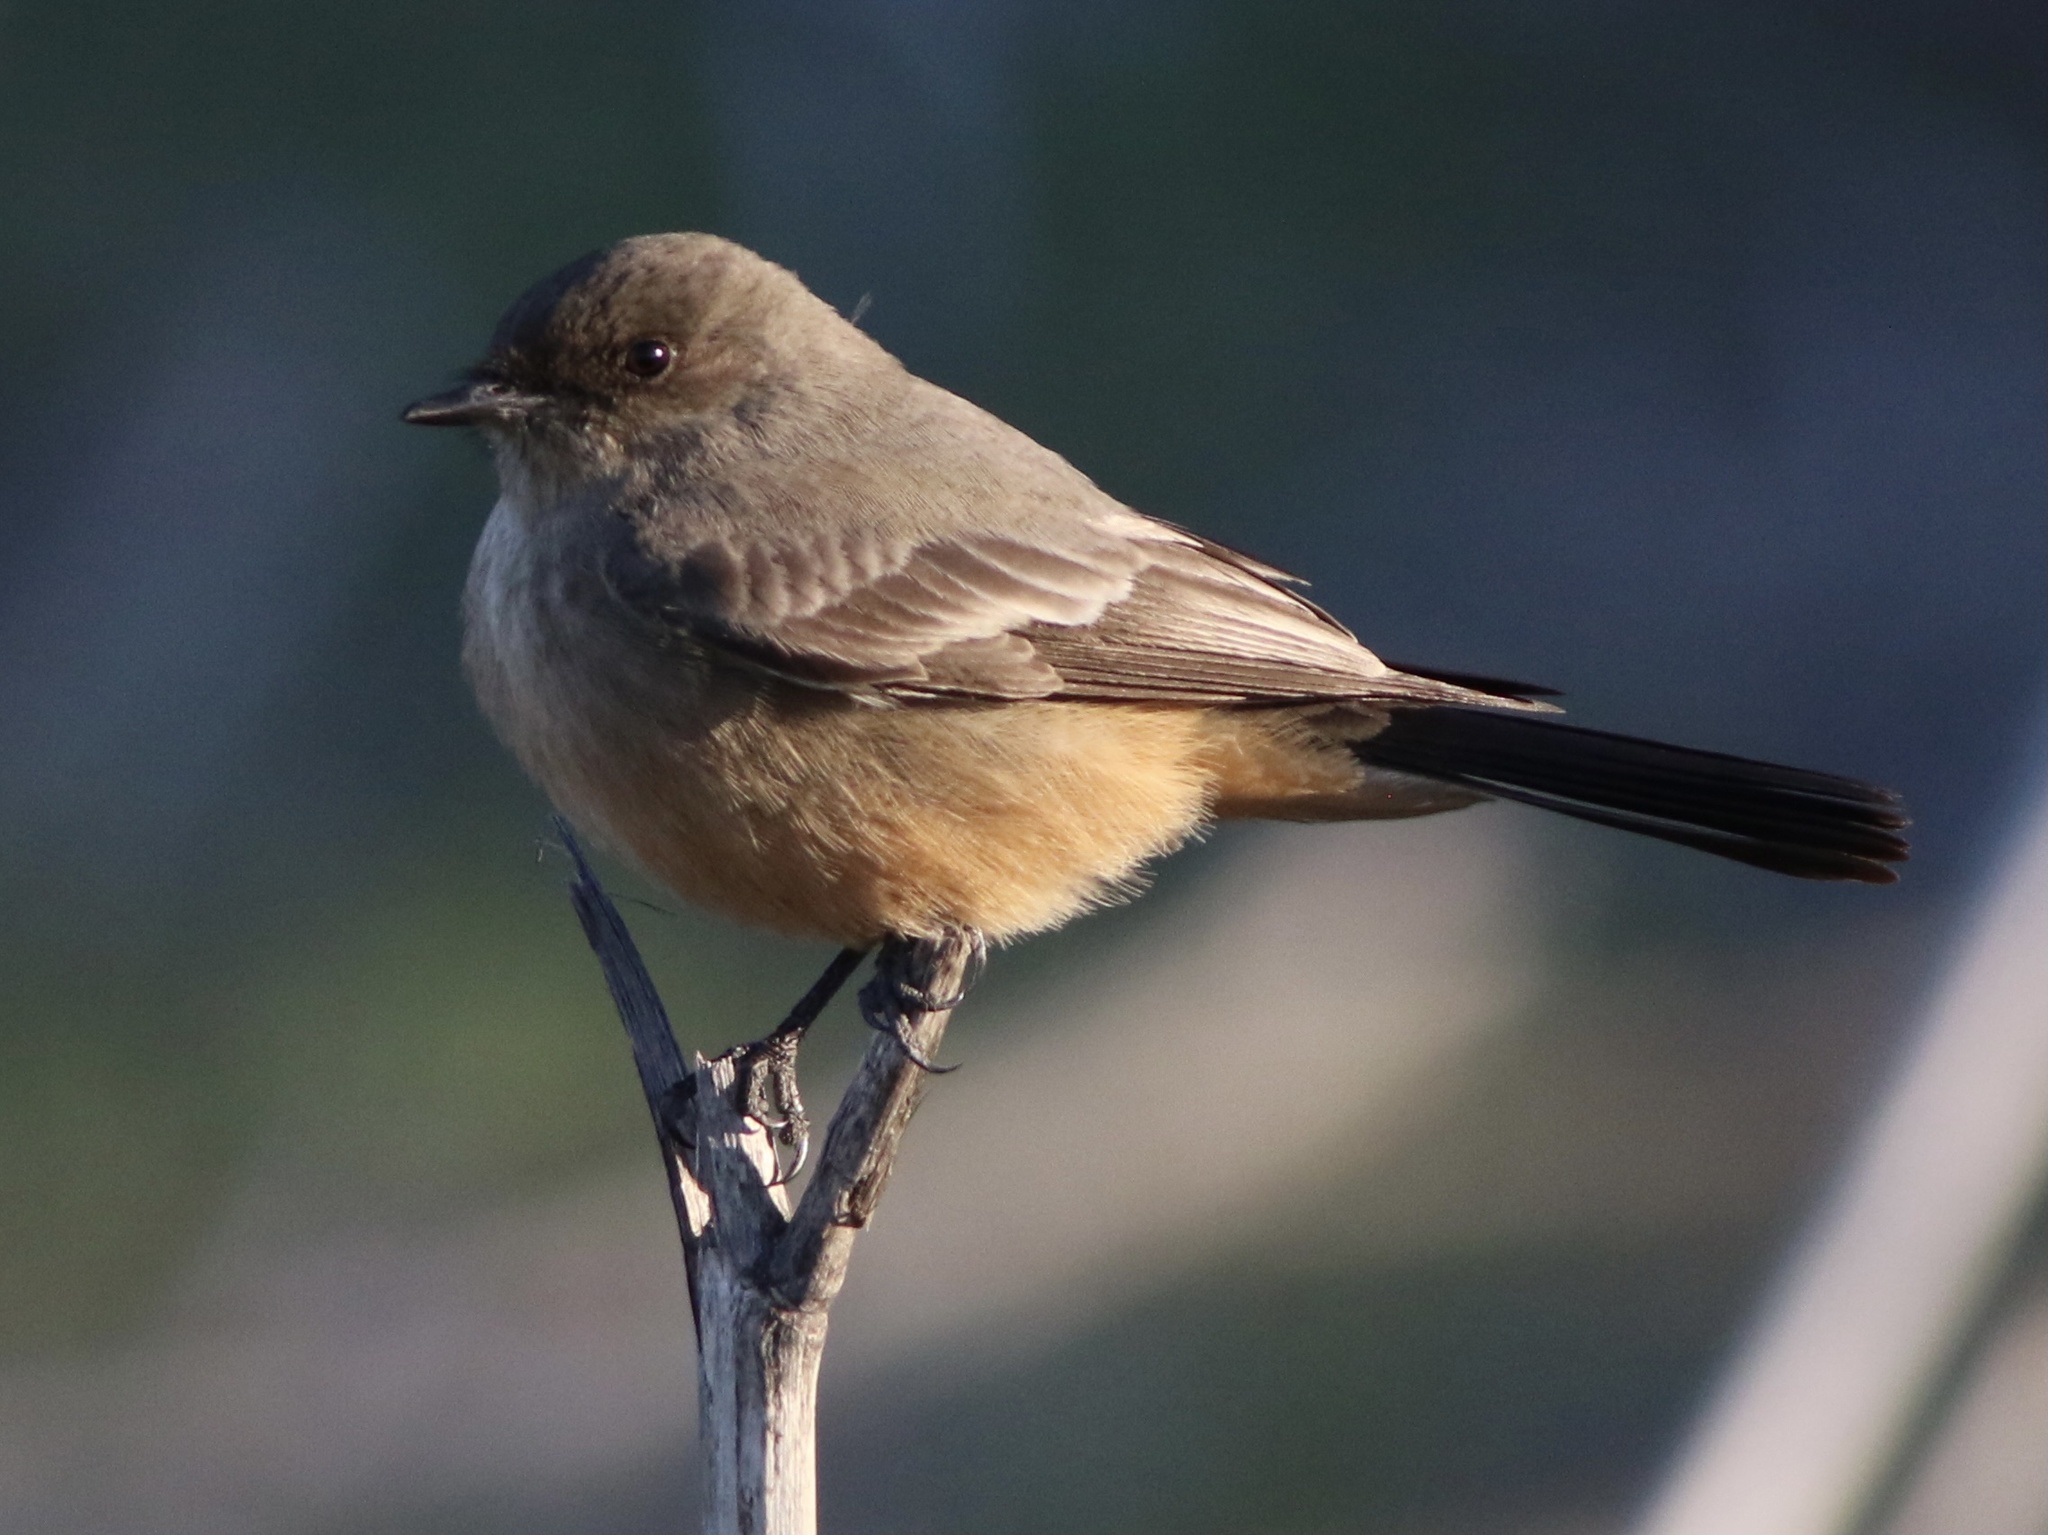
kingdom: Animalia
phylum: Chordata
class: Aves
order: Passeriformes
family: Tyrannidae
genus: Sayornis
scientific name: Sayornis saya
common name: Say's phoebe
